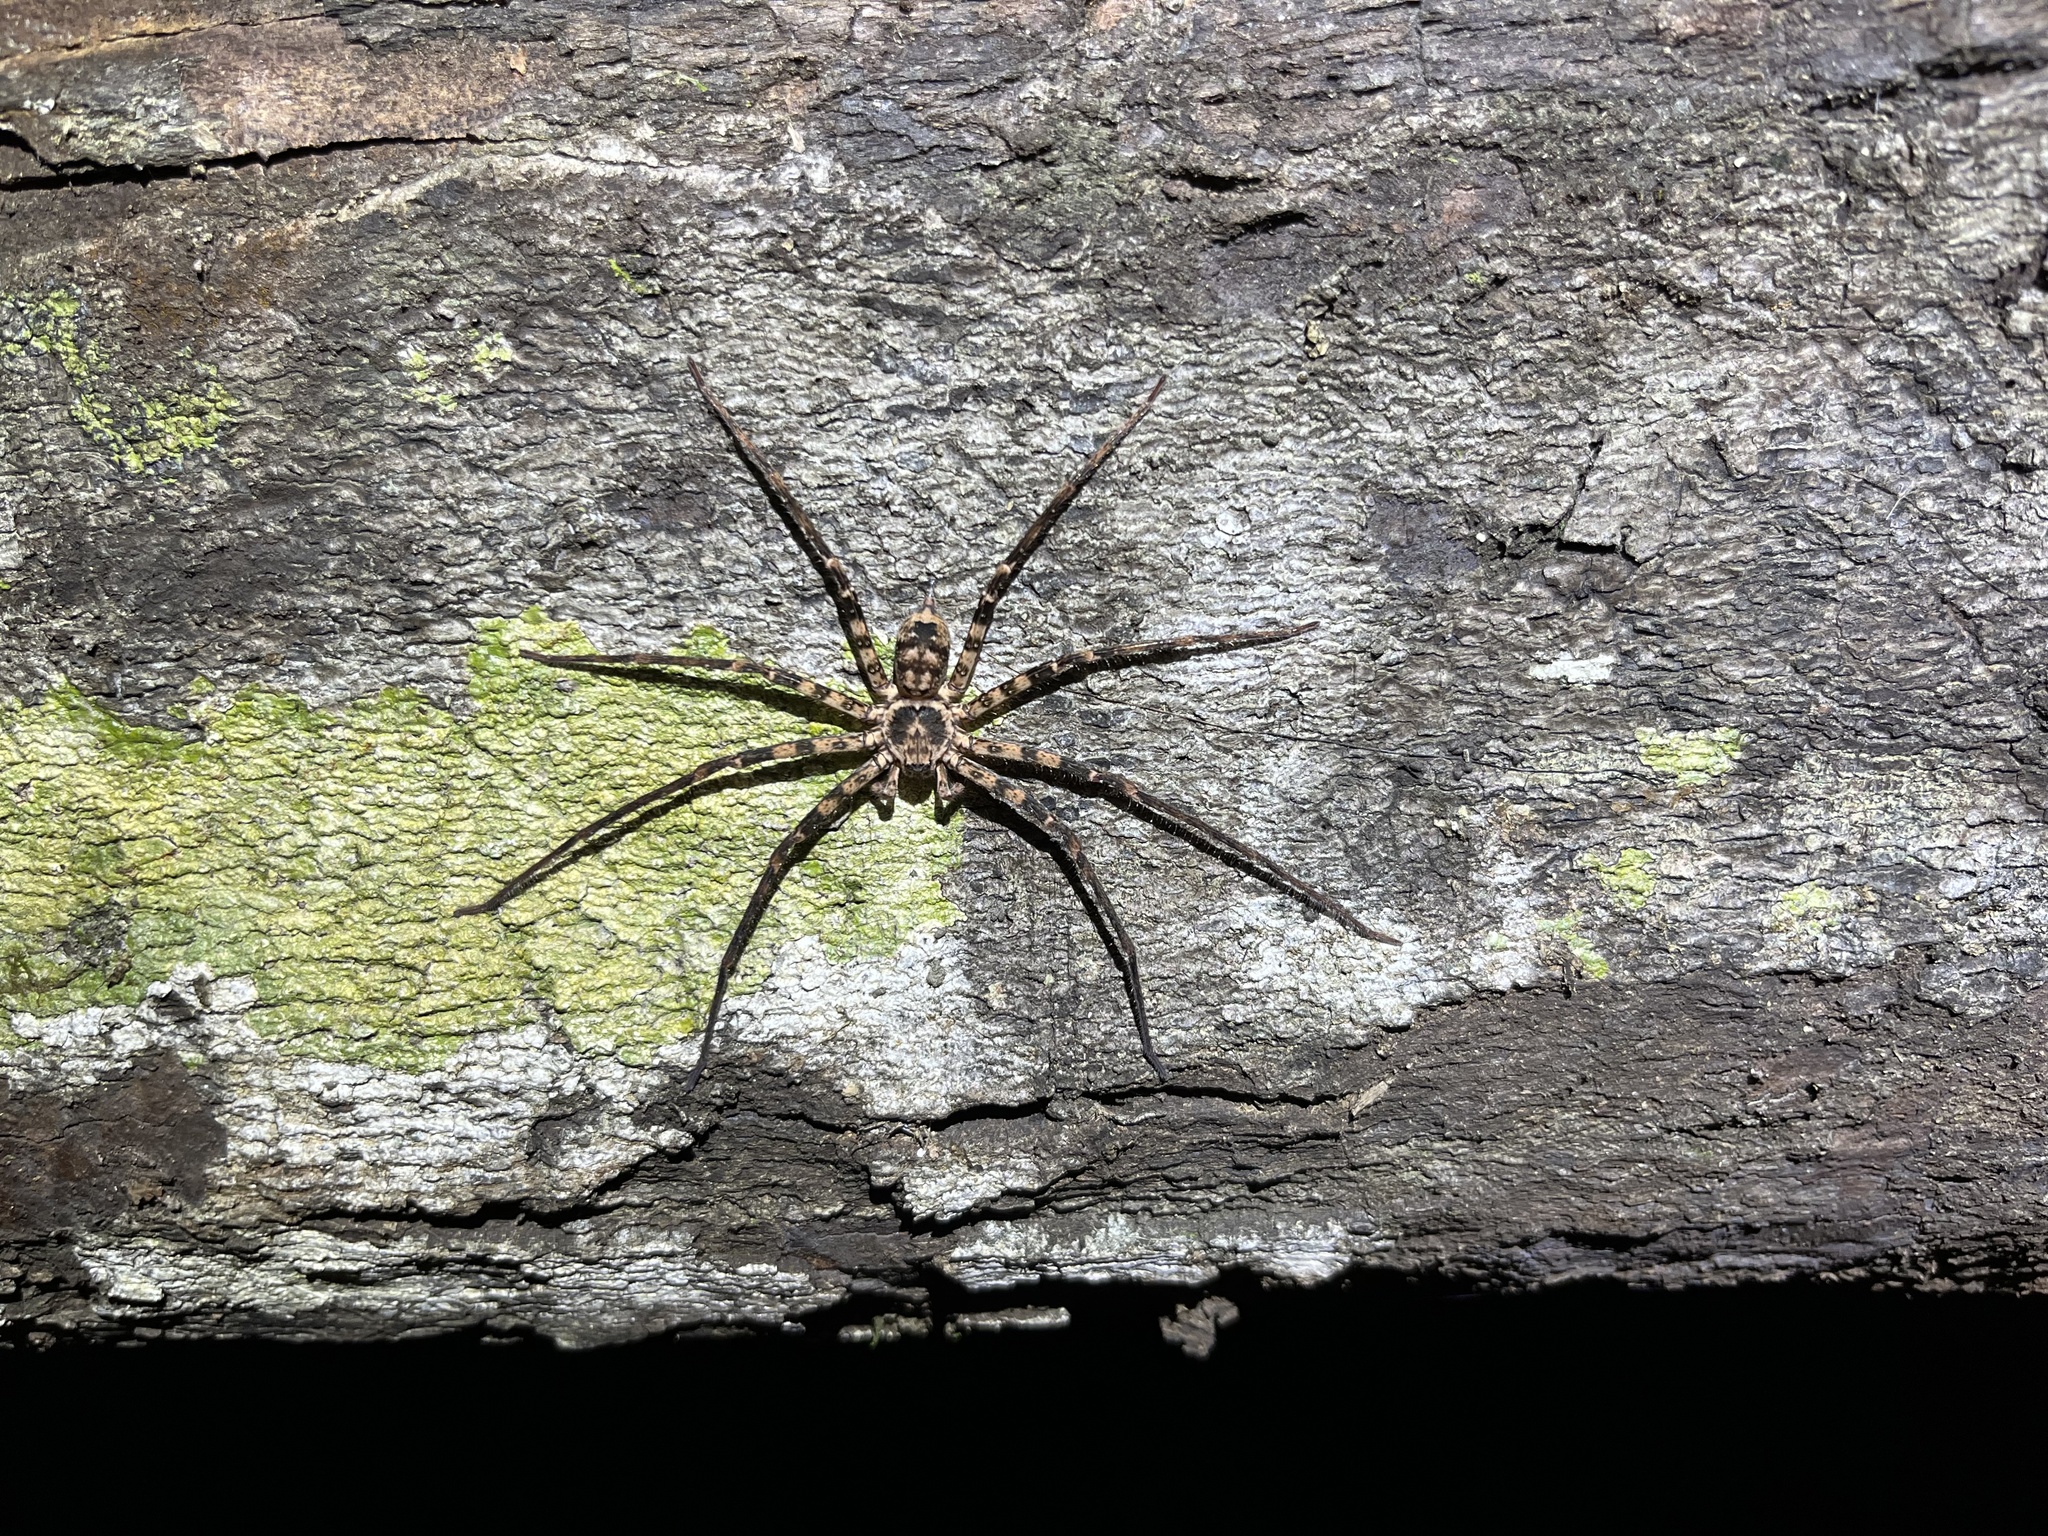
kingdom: Animalia
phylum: Arthropoda
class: Arachnida
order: Araneae
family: Sparassidae
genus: Heteropoda
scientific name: Heteropoda procera
